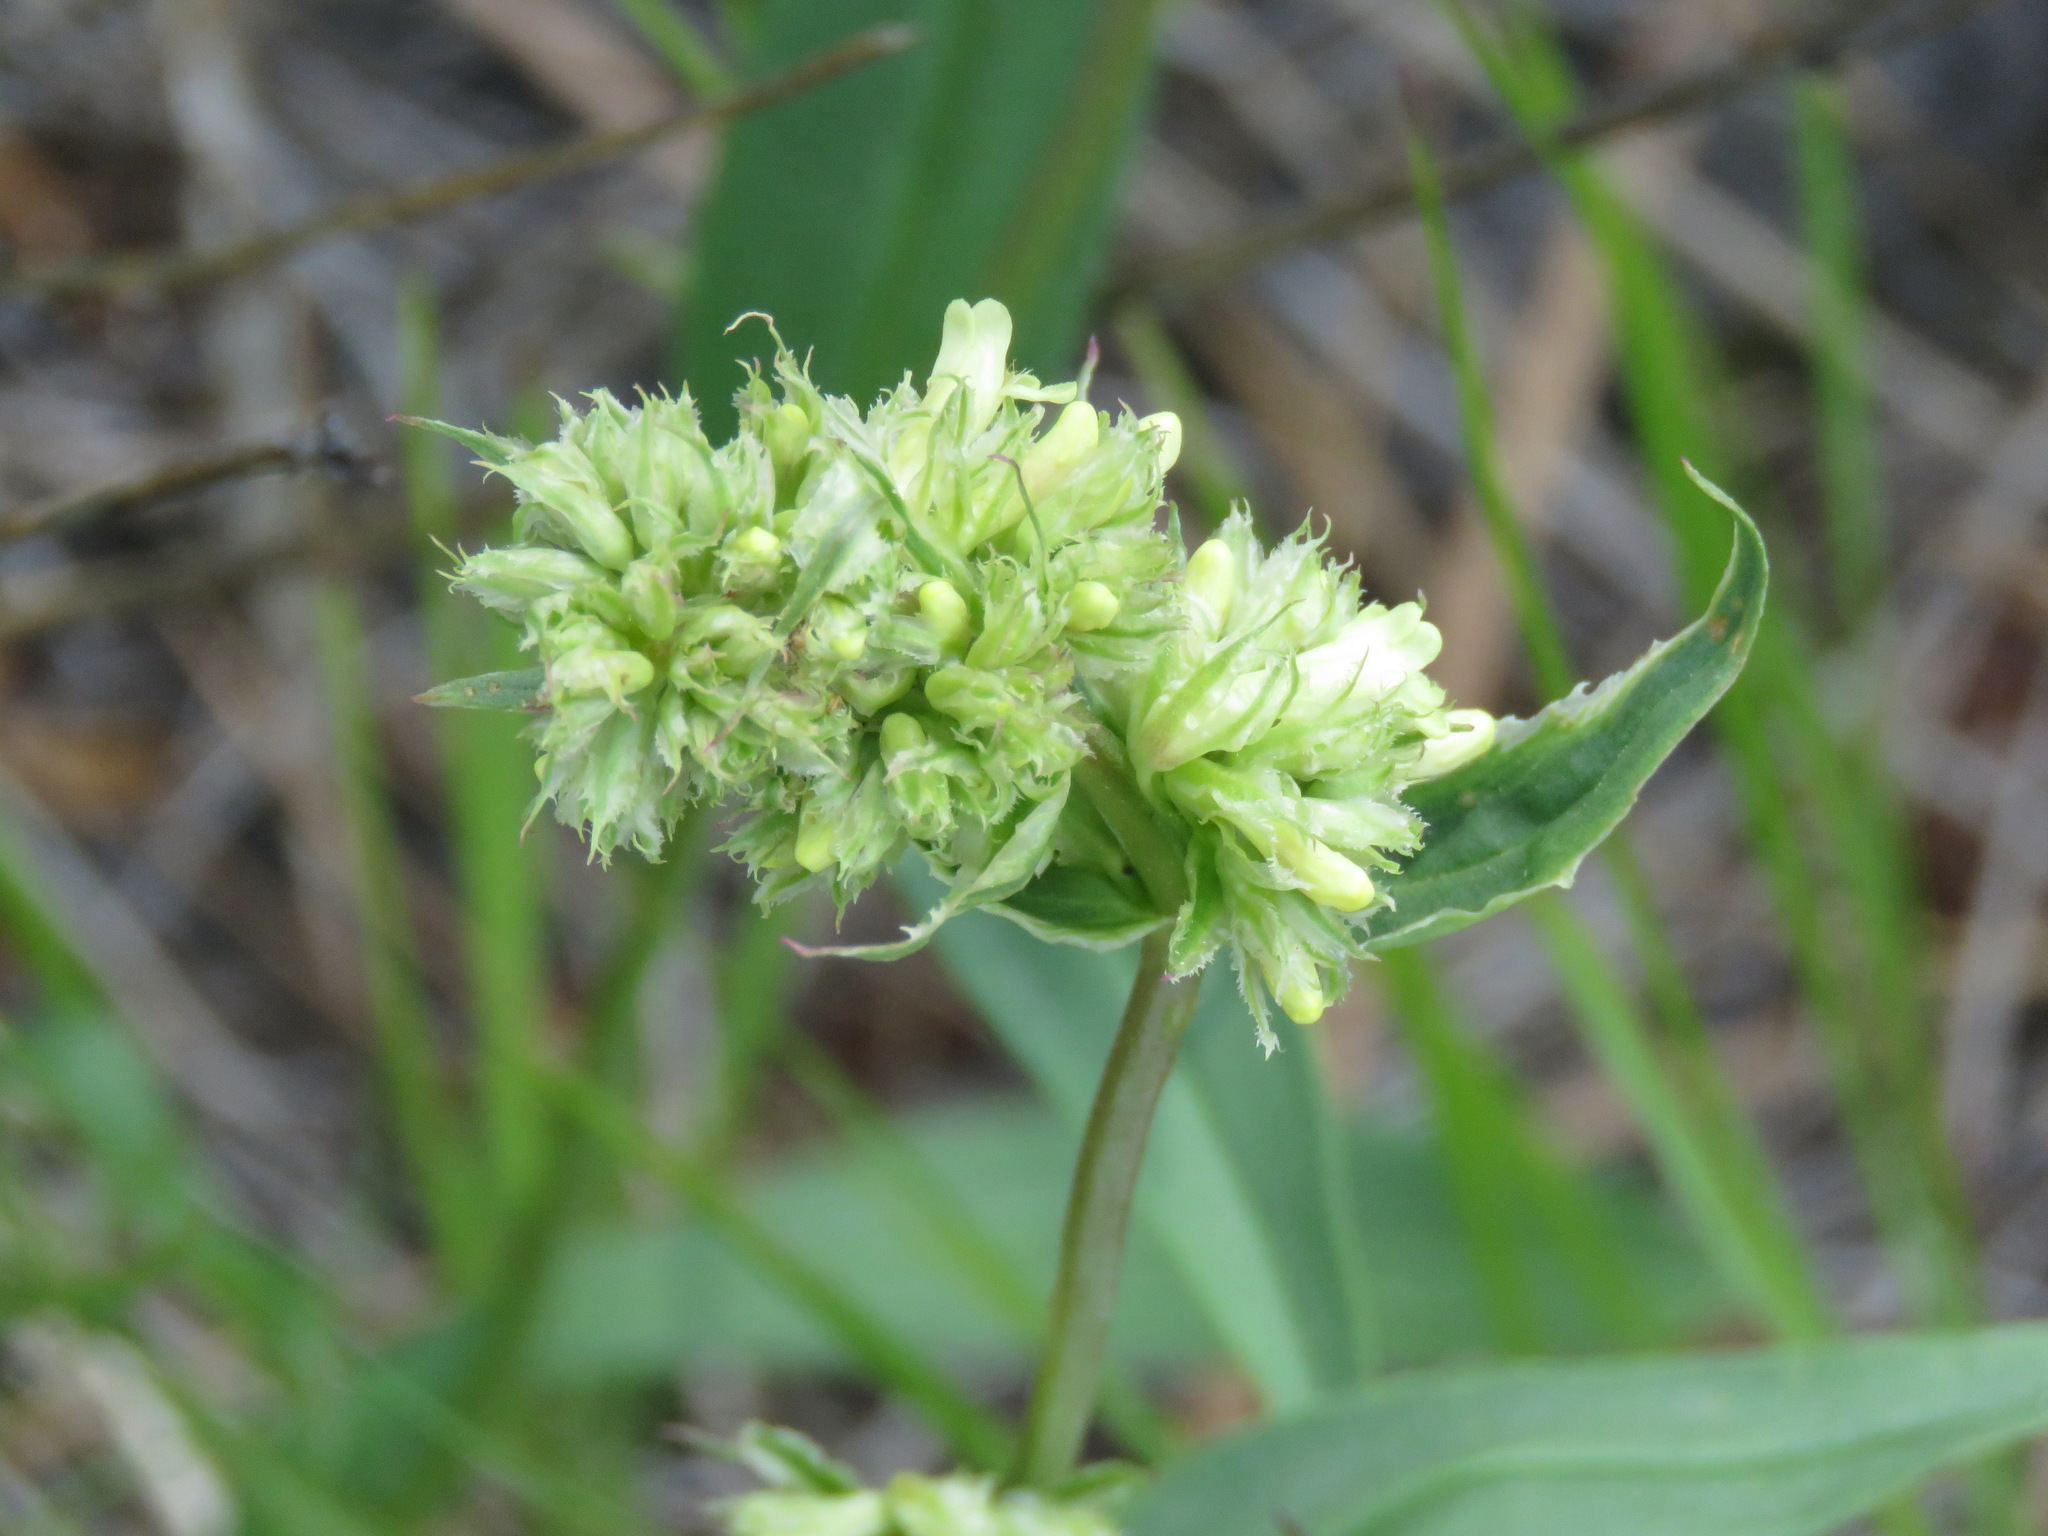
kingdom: Plantae
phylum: Tracheophyta
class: Magnoliopsida
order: Lamiales
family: Plantaginaceae
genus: Penstemon
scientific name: Penstemon confertus
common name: Lesser yellow beardtongue
